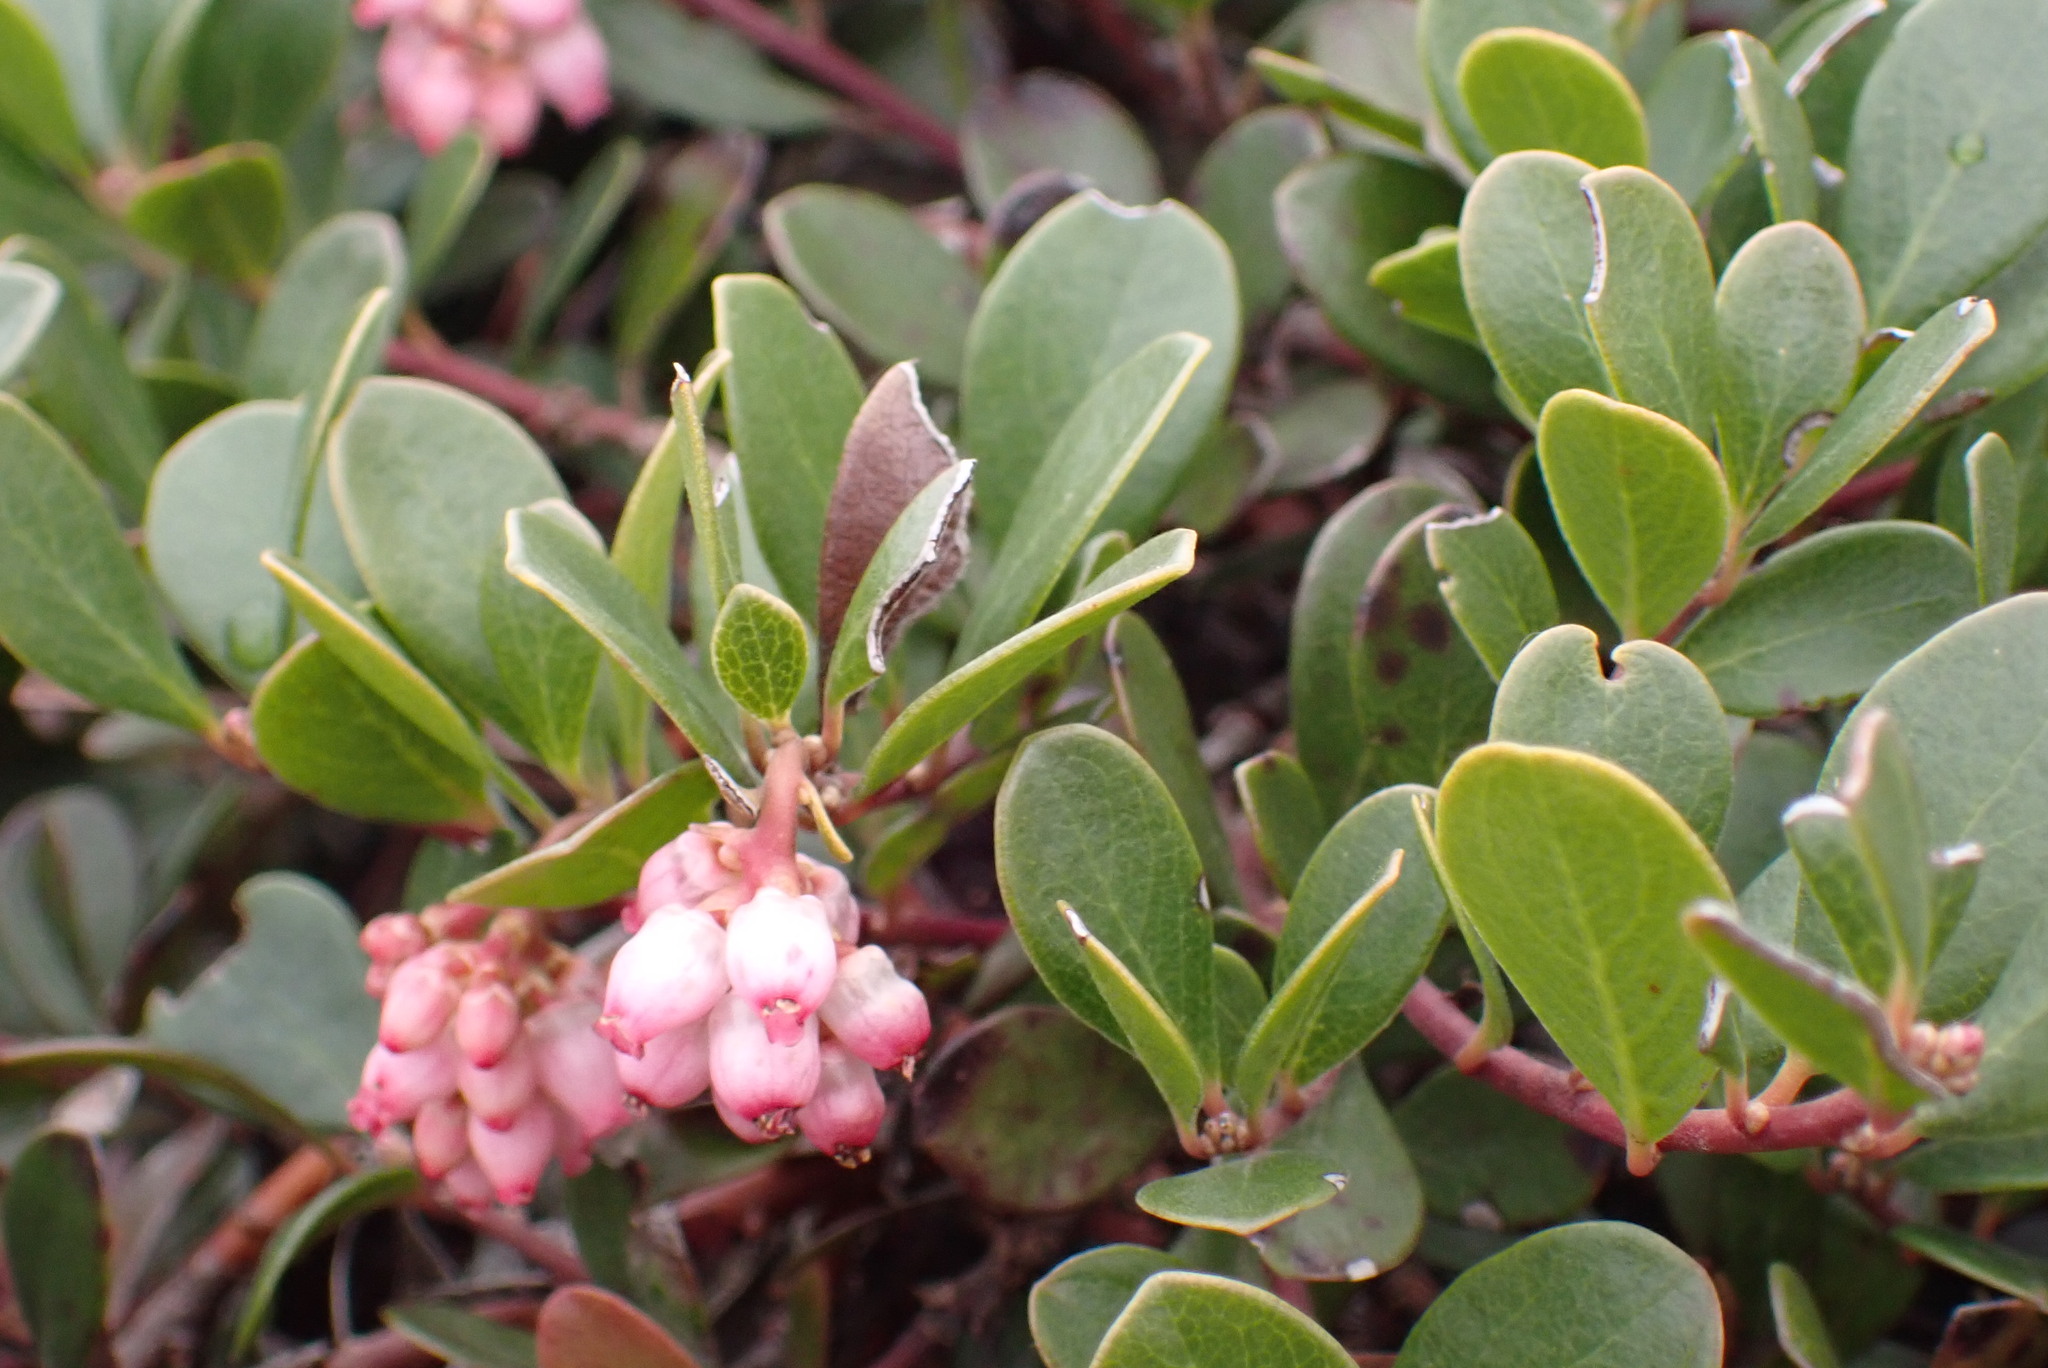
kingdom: Plantae
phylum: Tracheophyta
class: Magnoliopsida
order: Ericales
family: Ericaceae
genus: Arctostaphylos
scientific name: Arctostaphylos uva-ursi
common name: Bearberry
